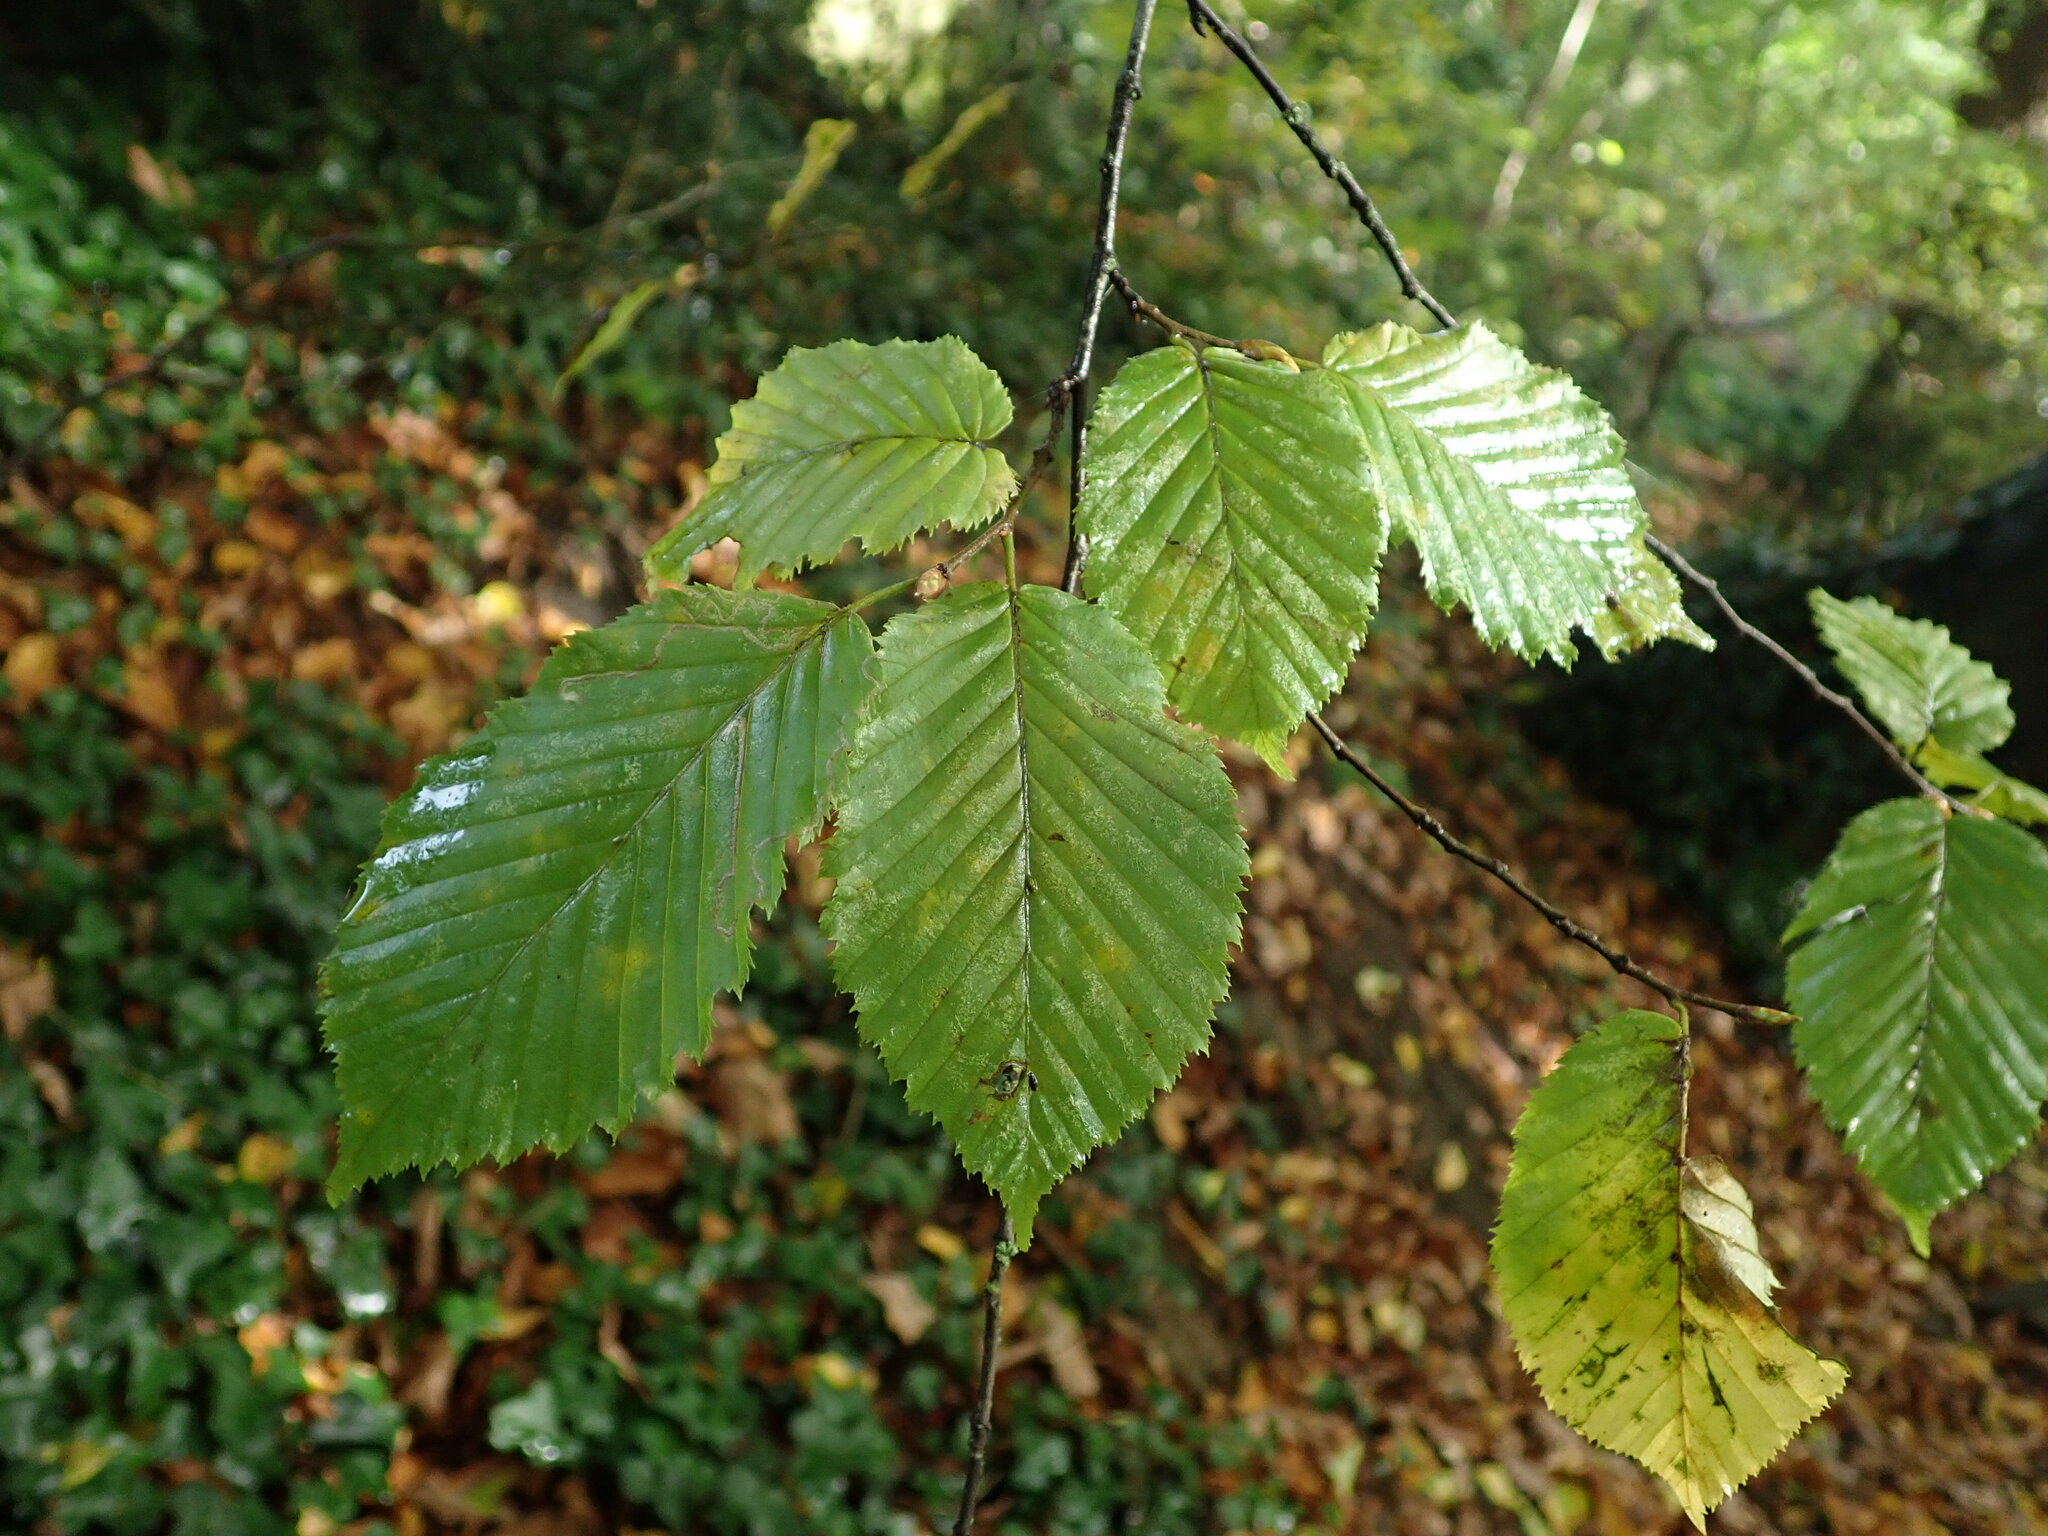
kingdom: Plantae
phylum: Tracheophyta
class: Magnoliopsida
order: Fagales
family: Betulaceae
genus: Carpinus
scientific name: Carpinus betulus
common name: Hornbeam
